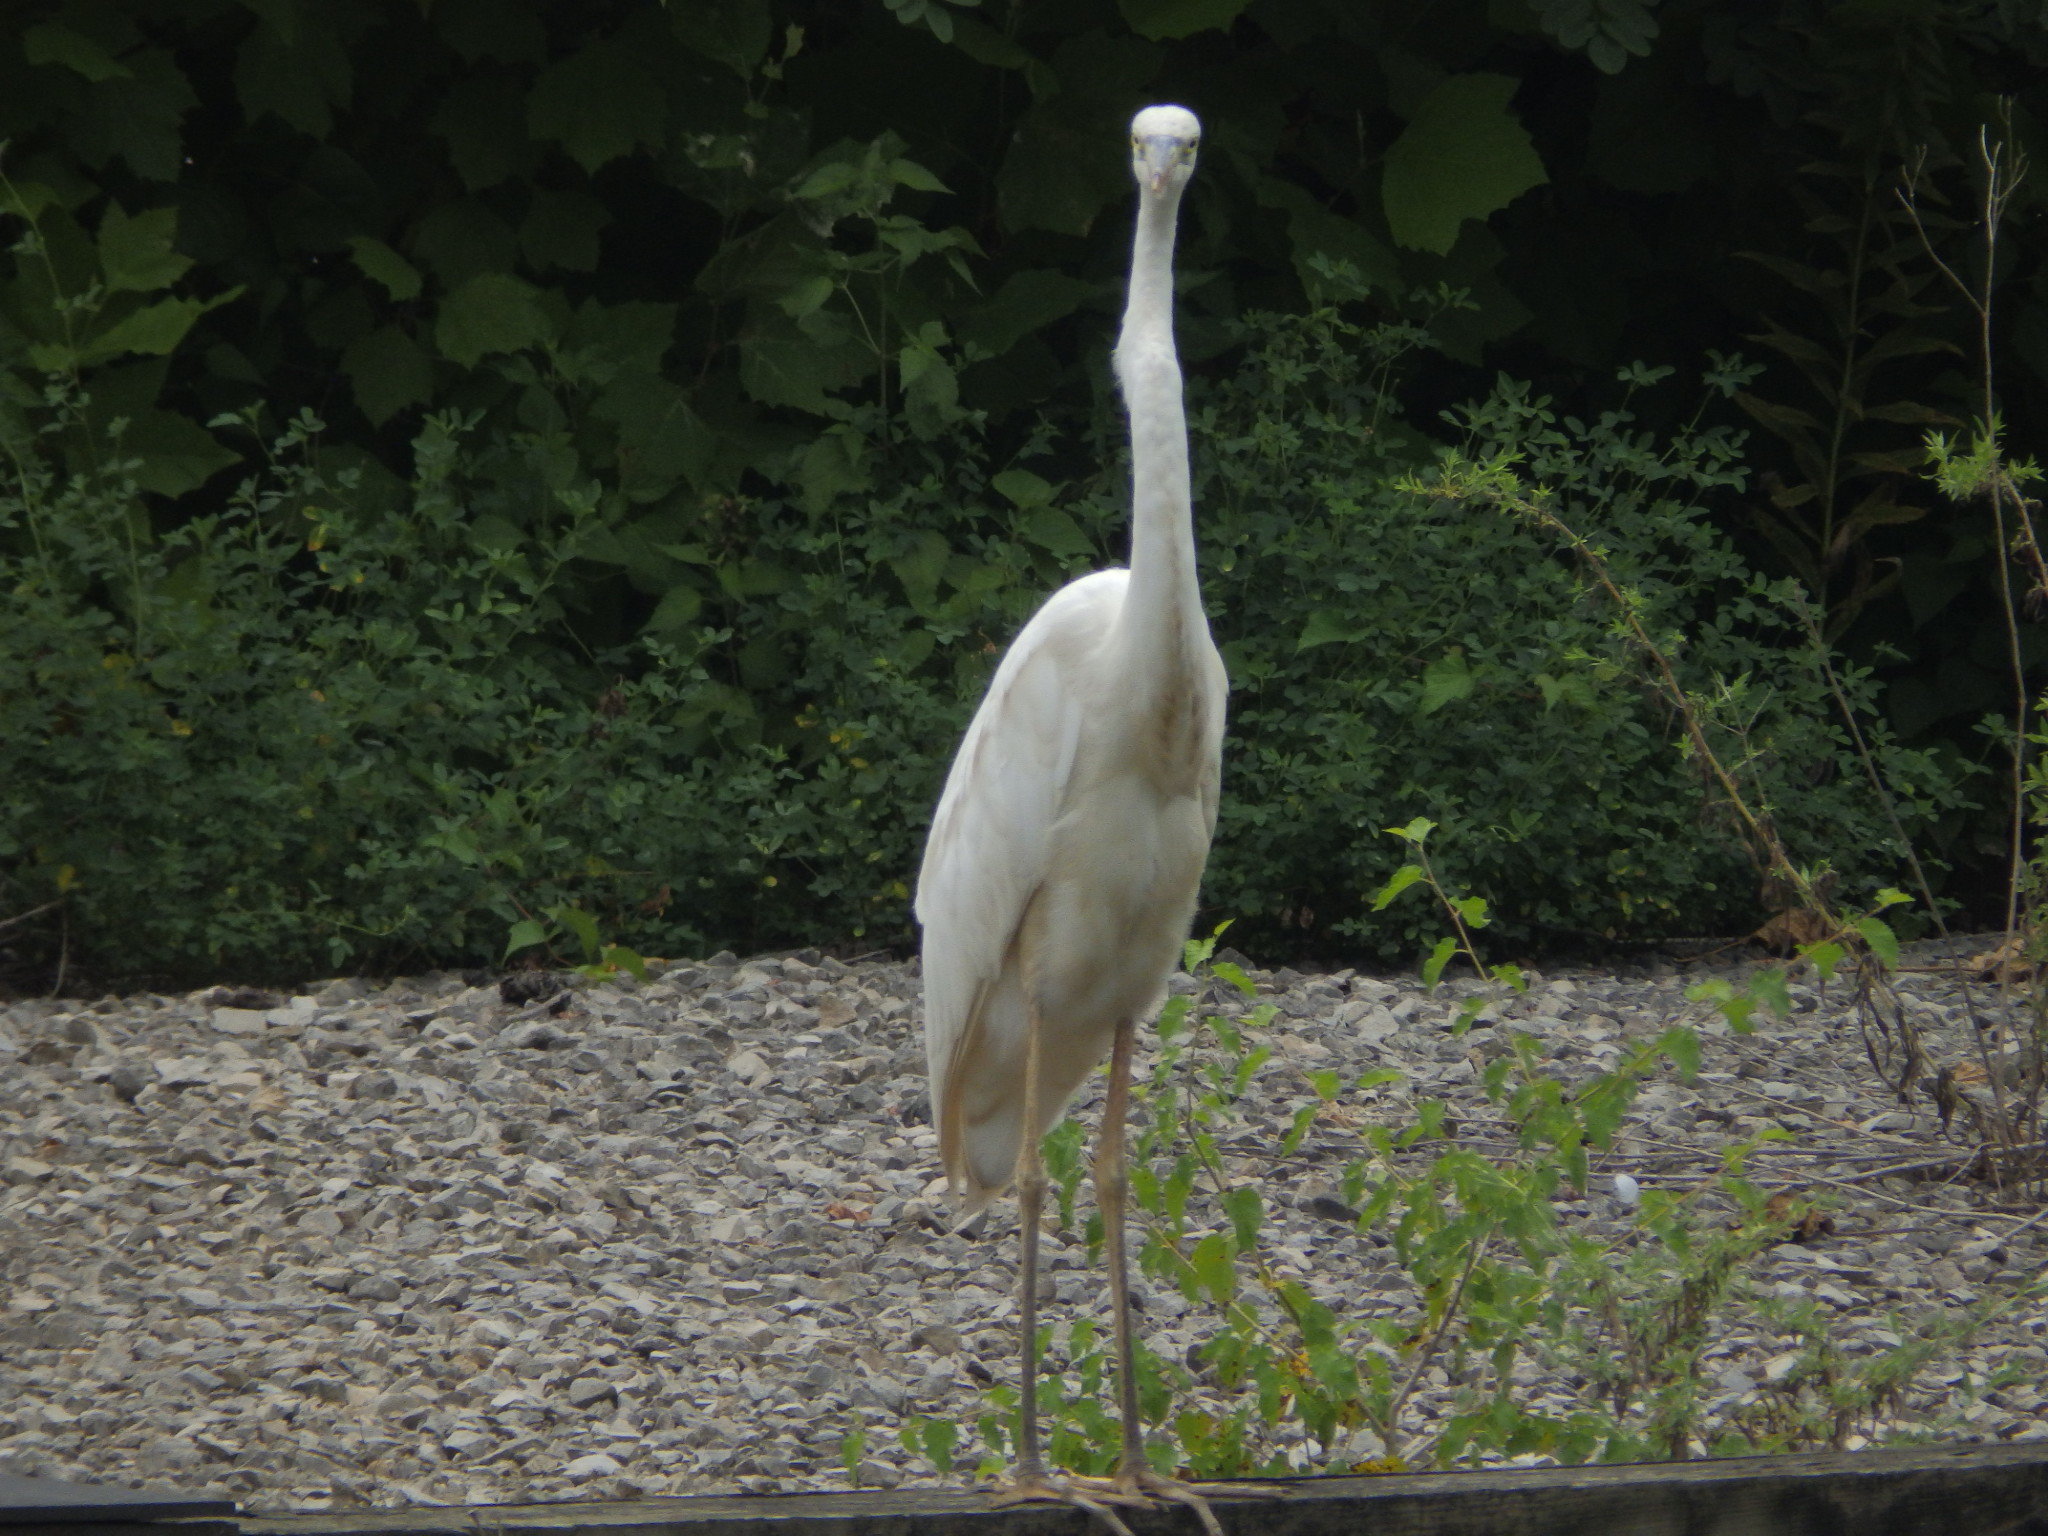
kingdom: Animalia
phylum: Chordata
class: Aves
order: Pelecaniformes
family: Ardeidae
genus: Ardea
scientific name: Ardea herodias
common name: Great blue heron
